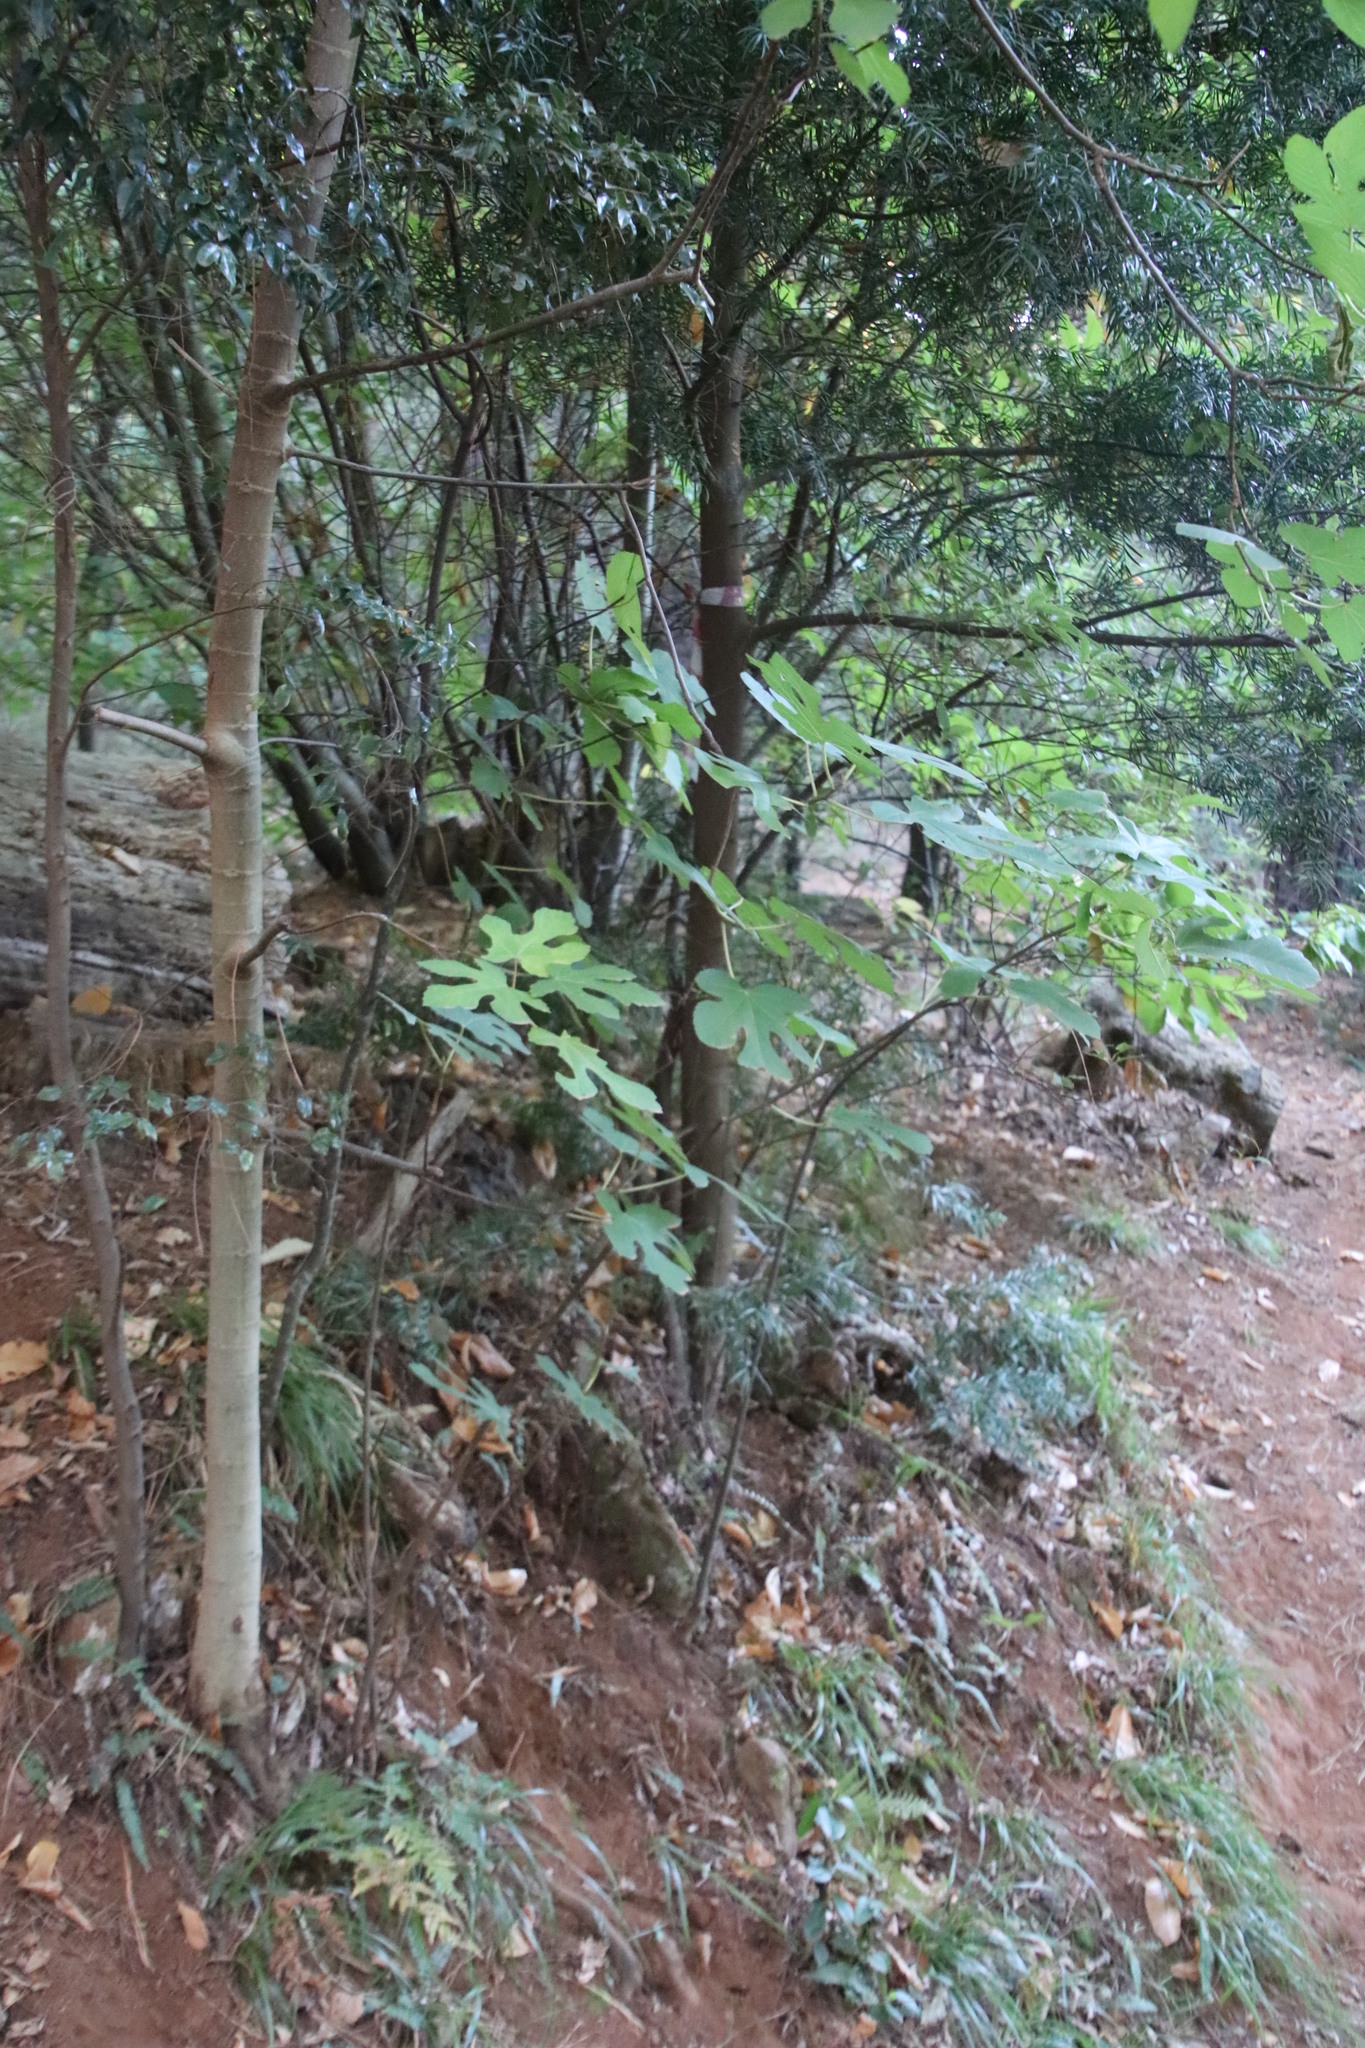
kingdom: Plantae
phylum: Tracheophyta
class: Magnoliopsida
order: Rosales
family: Moraceae
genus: Ficus
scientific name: Ficus carica
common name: Fig
